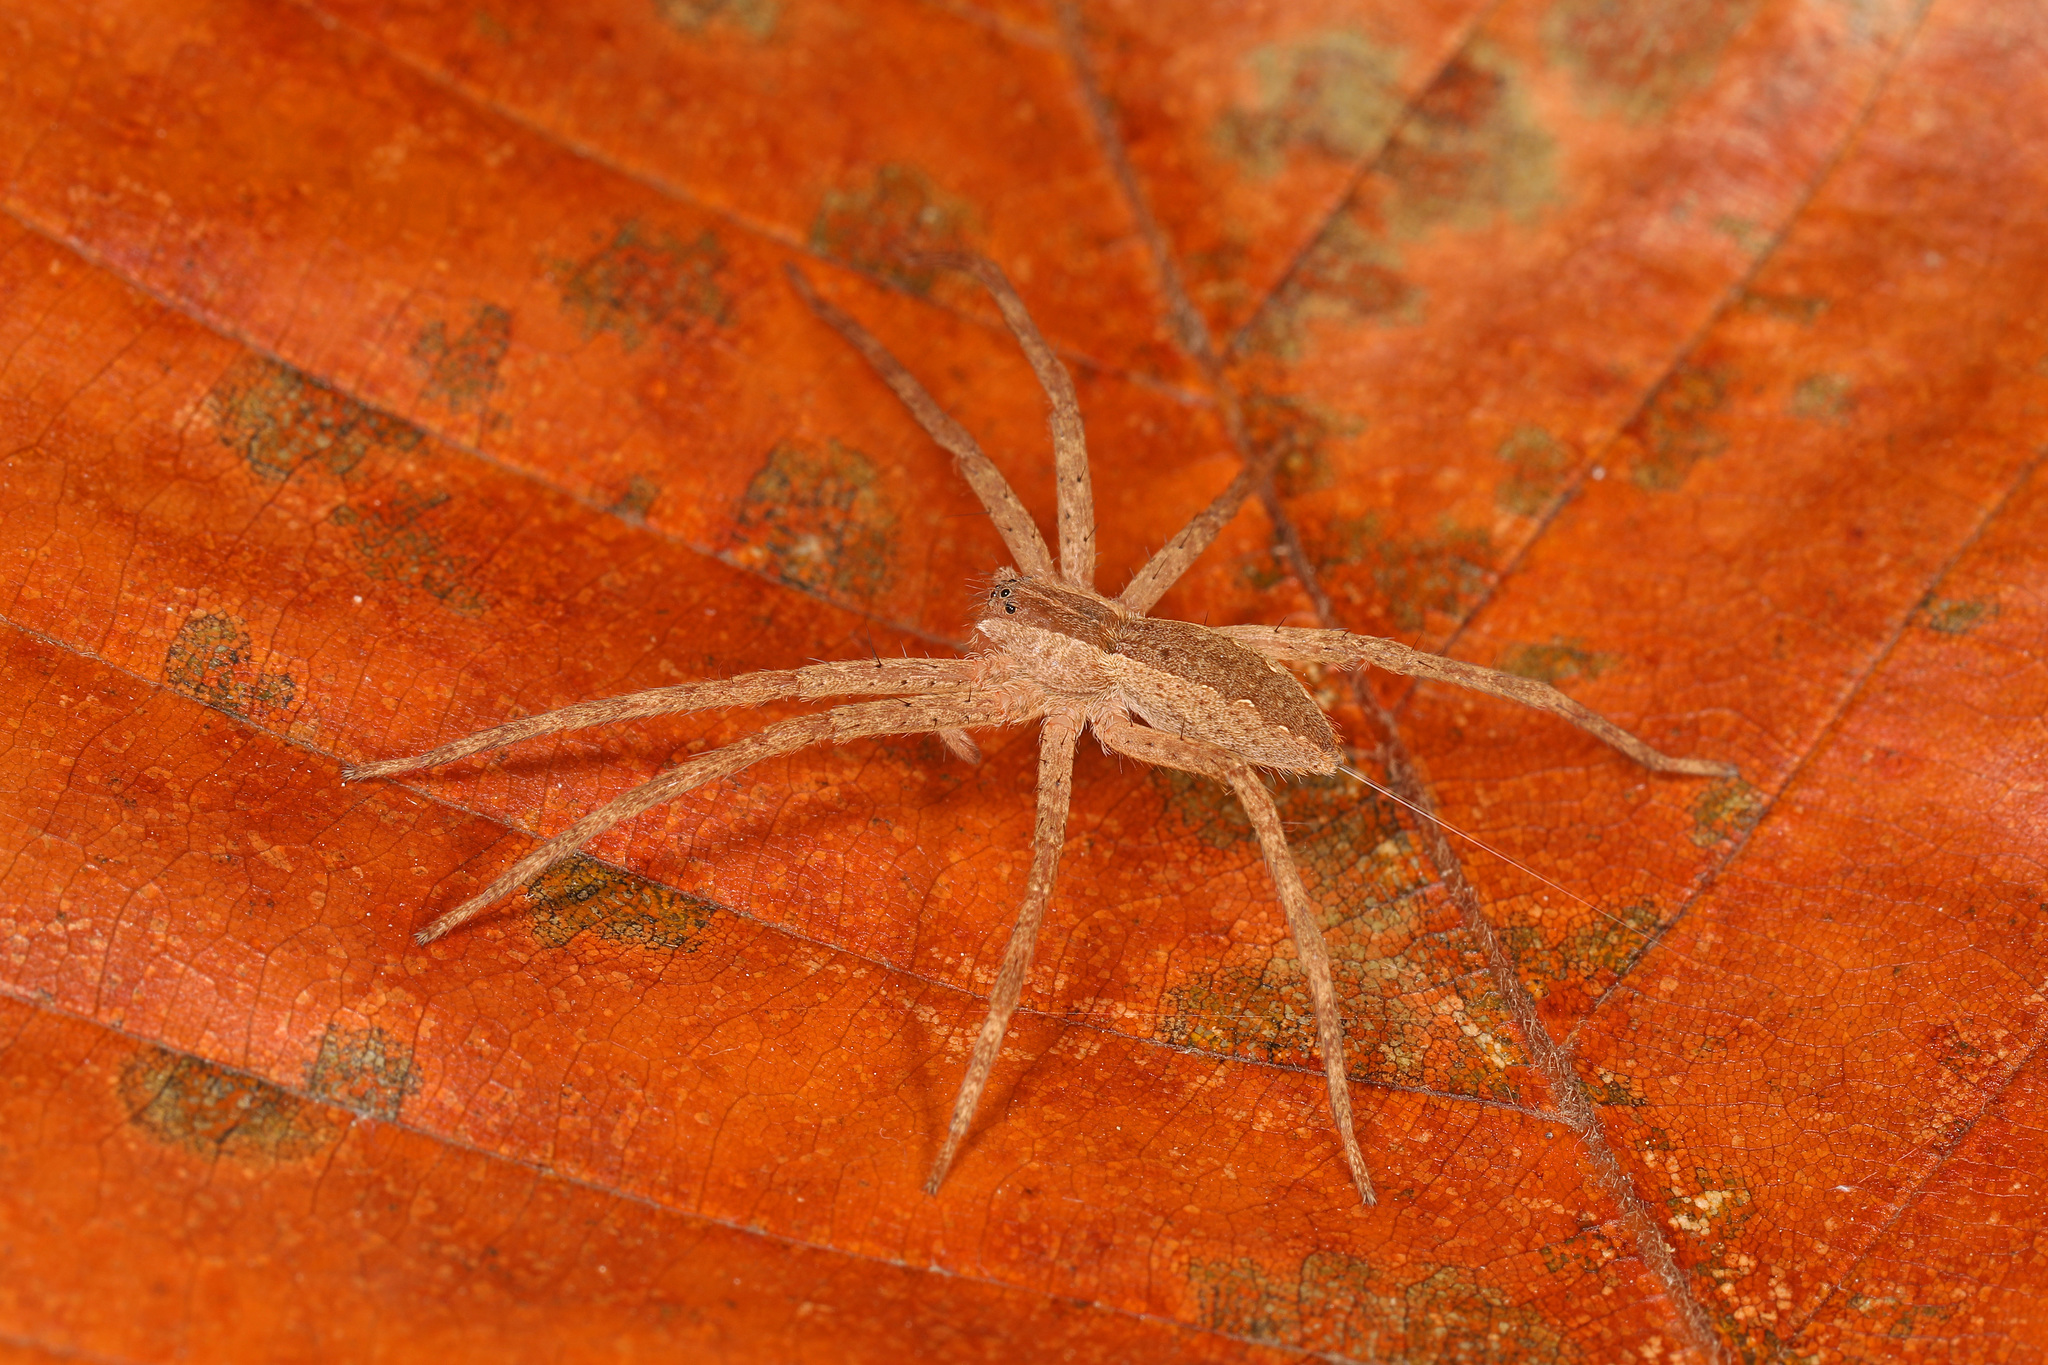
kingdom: Animalia
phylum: Arthropoda
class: Arachnida
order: Araneae
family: Pisauridae
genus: Pisaurina
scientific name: Pisaurina mira
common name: American nursery web spider
